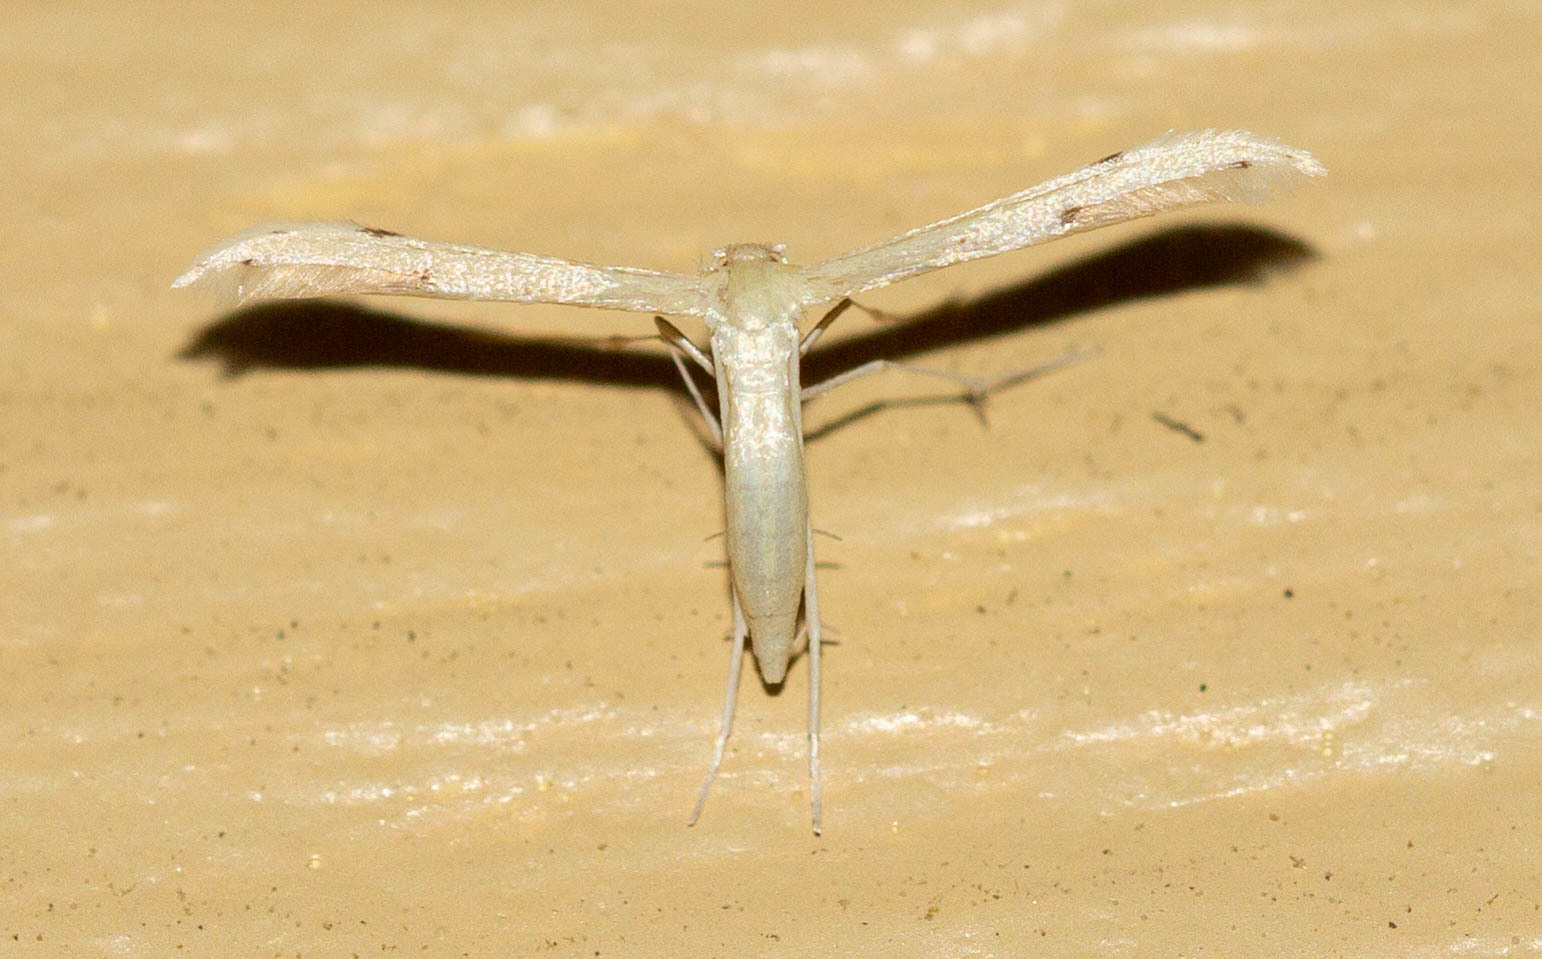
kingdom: Animalia
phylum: Arthropoda
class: Insecta
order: Lepidoptera
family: Pterophoridae
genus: Adaina
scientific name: Adaina
